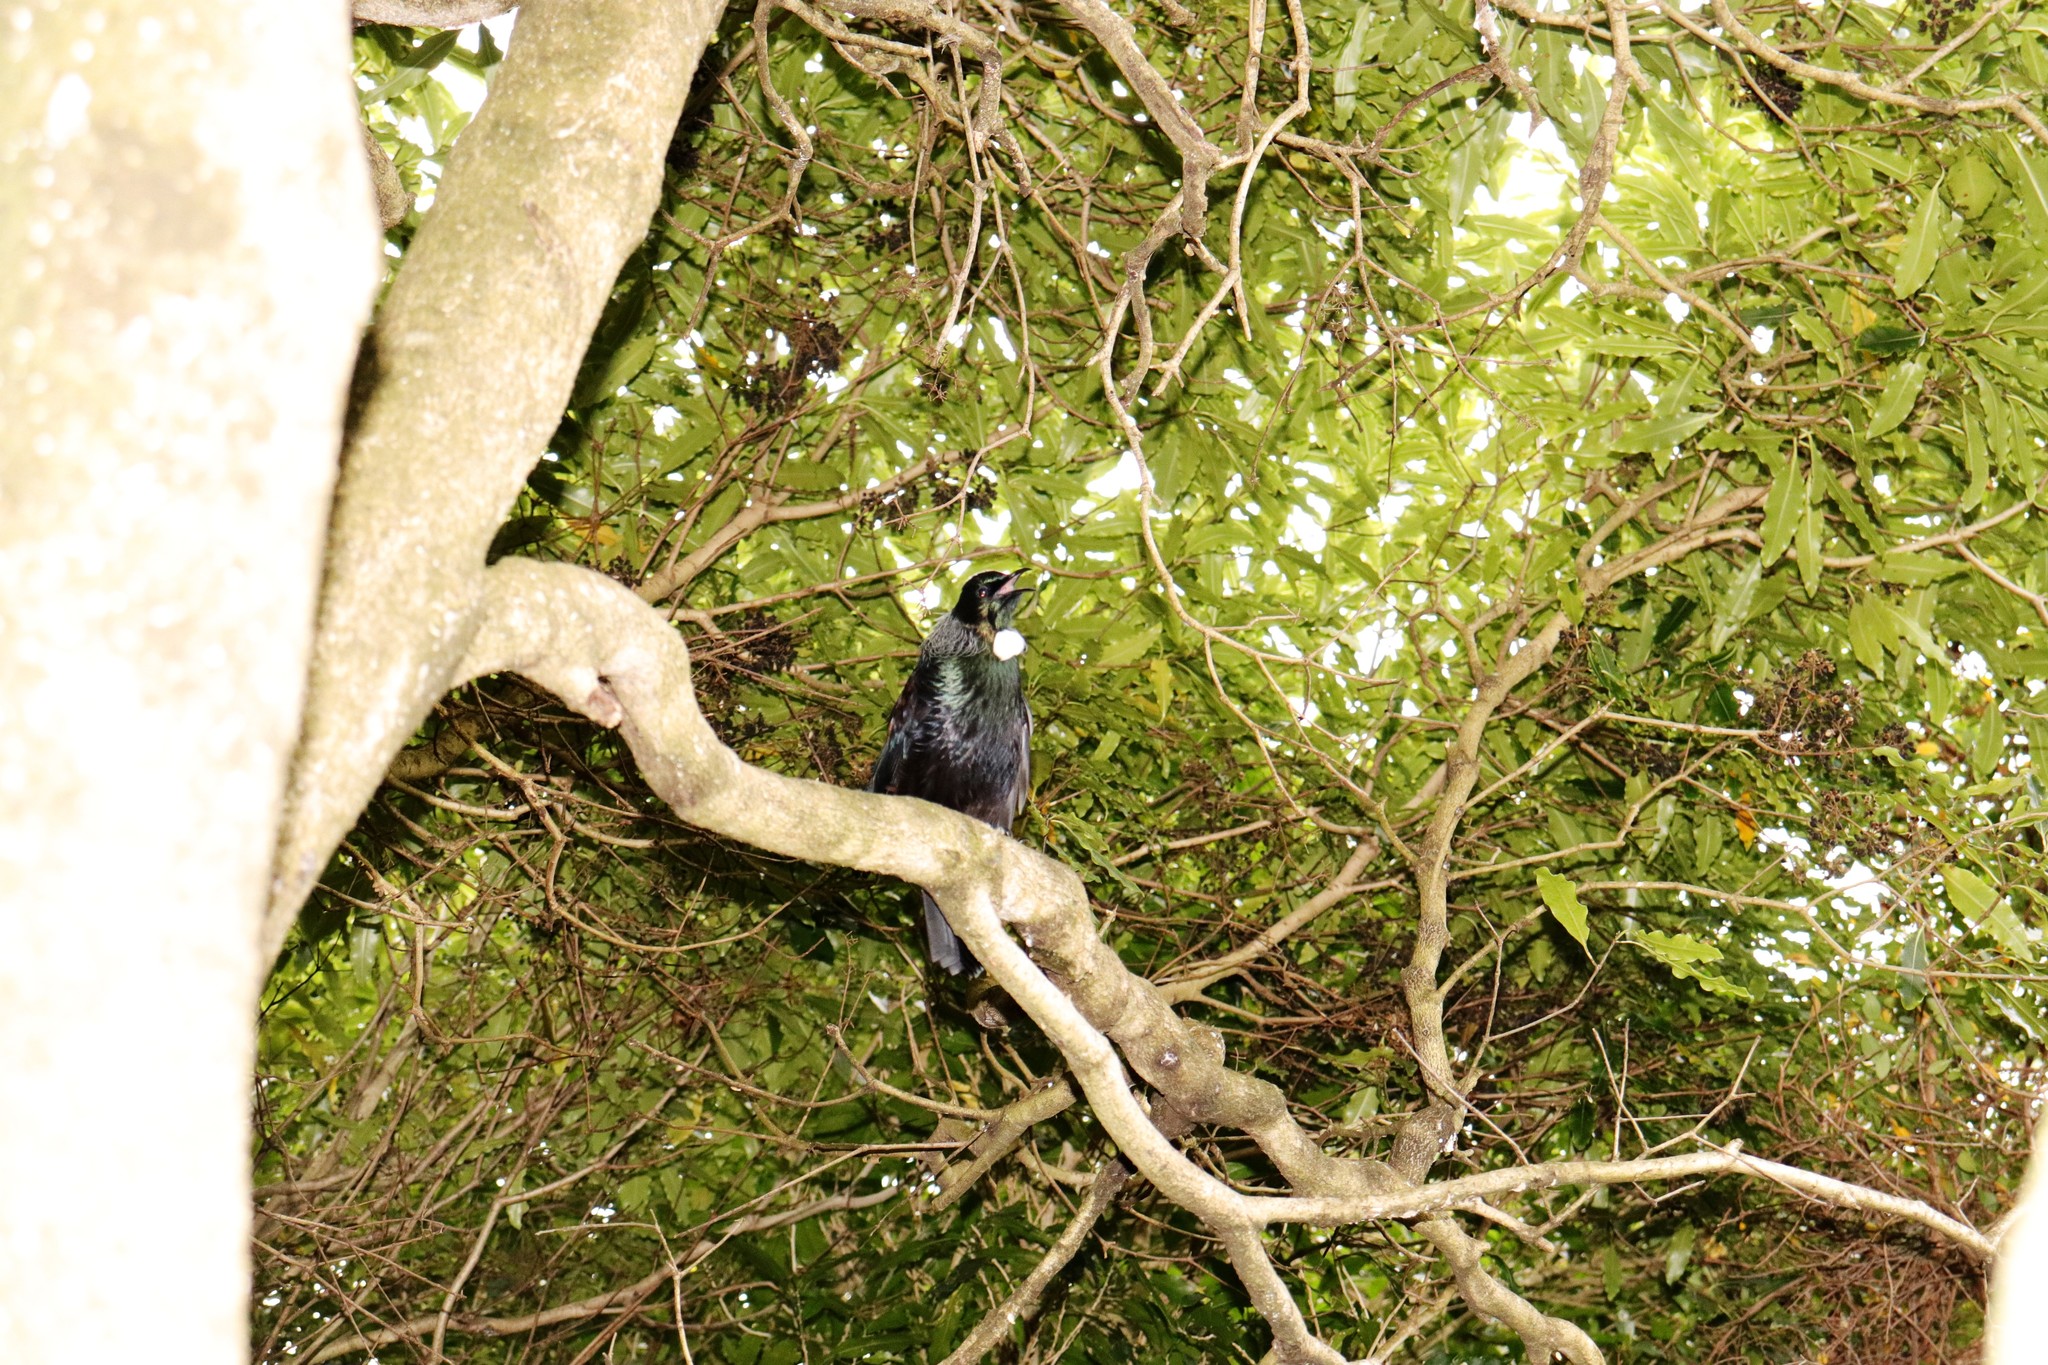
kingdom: Animalia
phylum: Chordata
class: Aves
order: Passeriformes
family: Meliphagidae
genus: Prosthemadera
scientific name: Prosthemadera novaeseelandiae
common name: Tui
